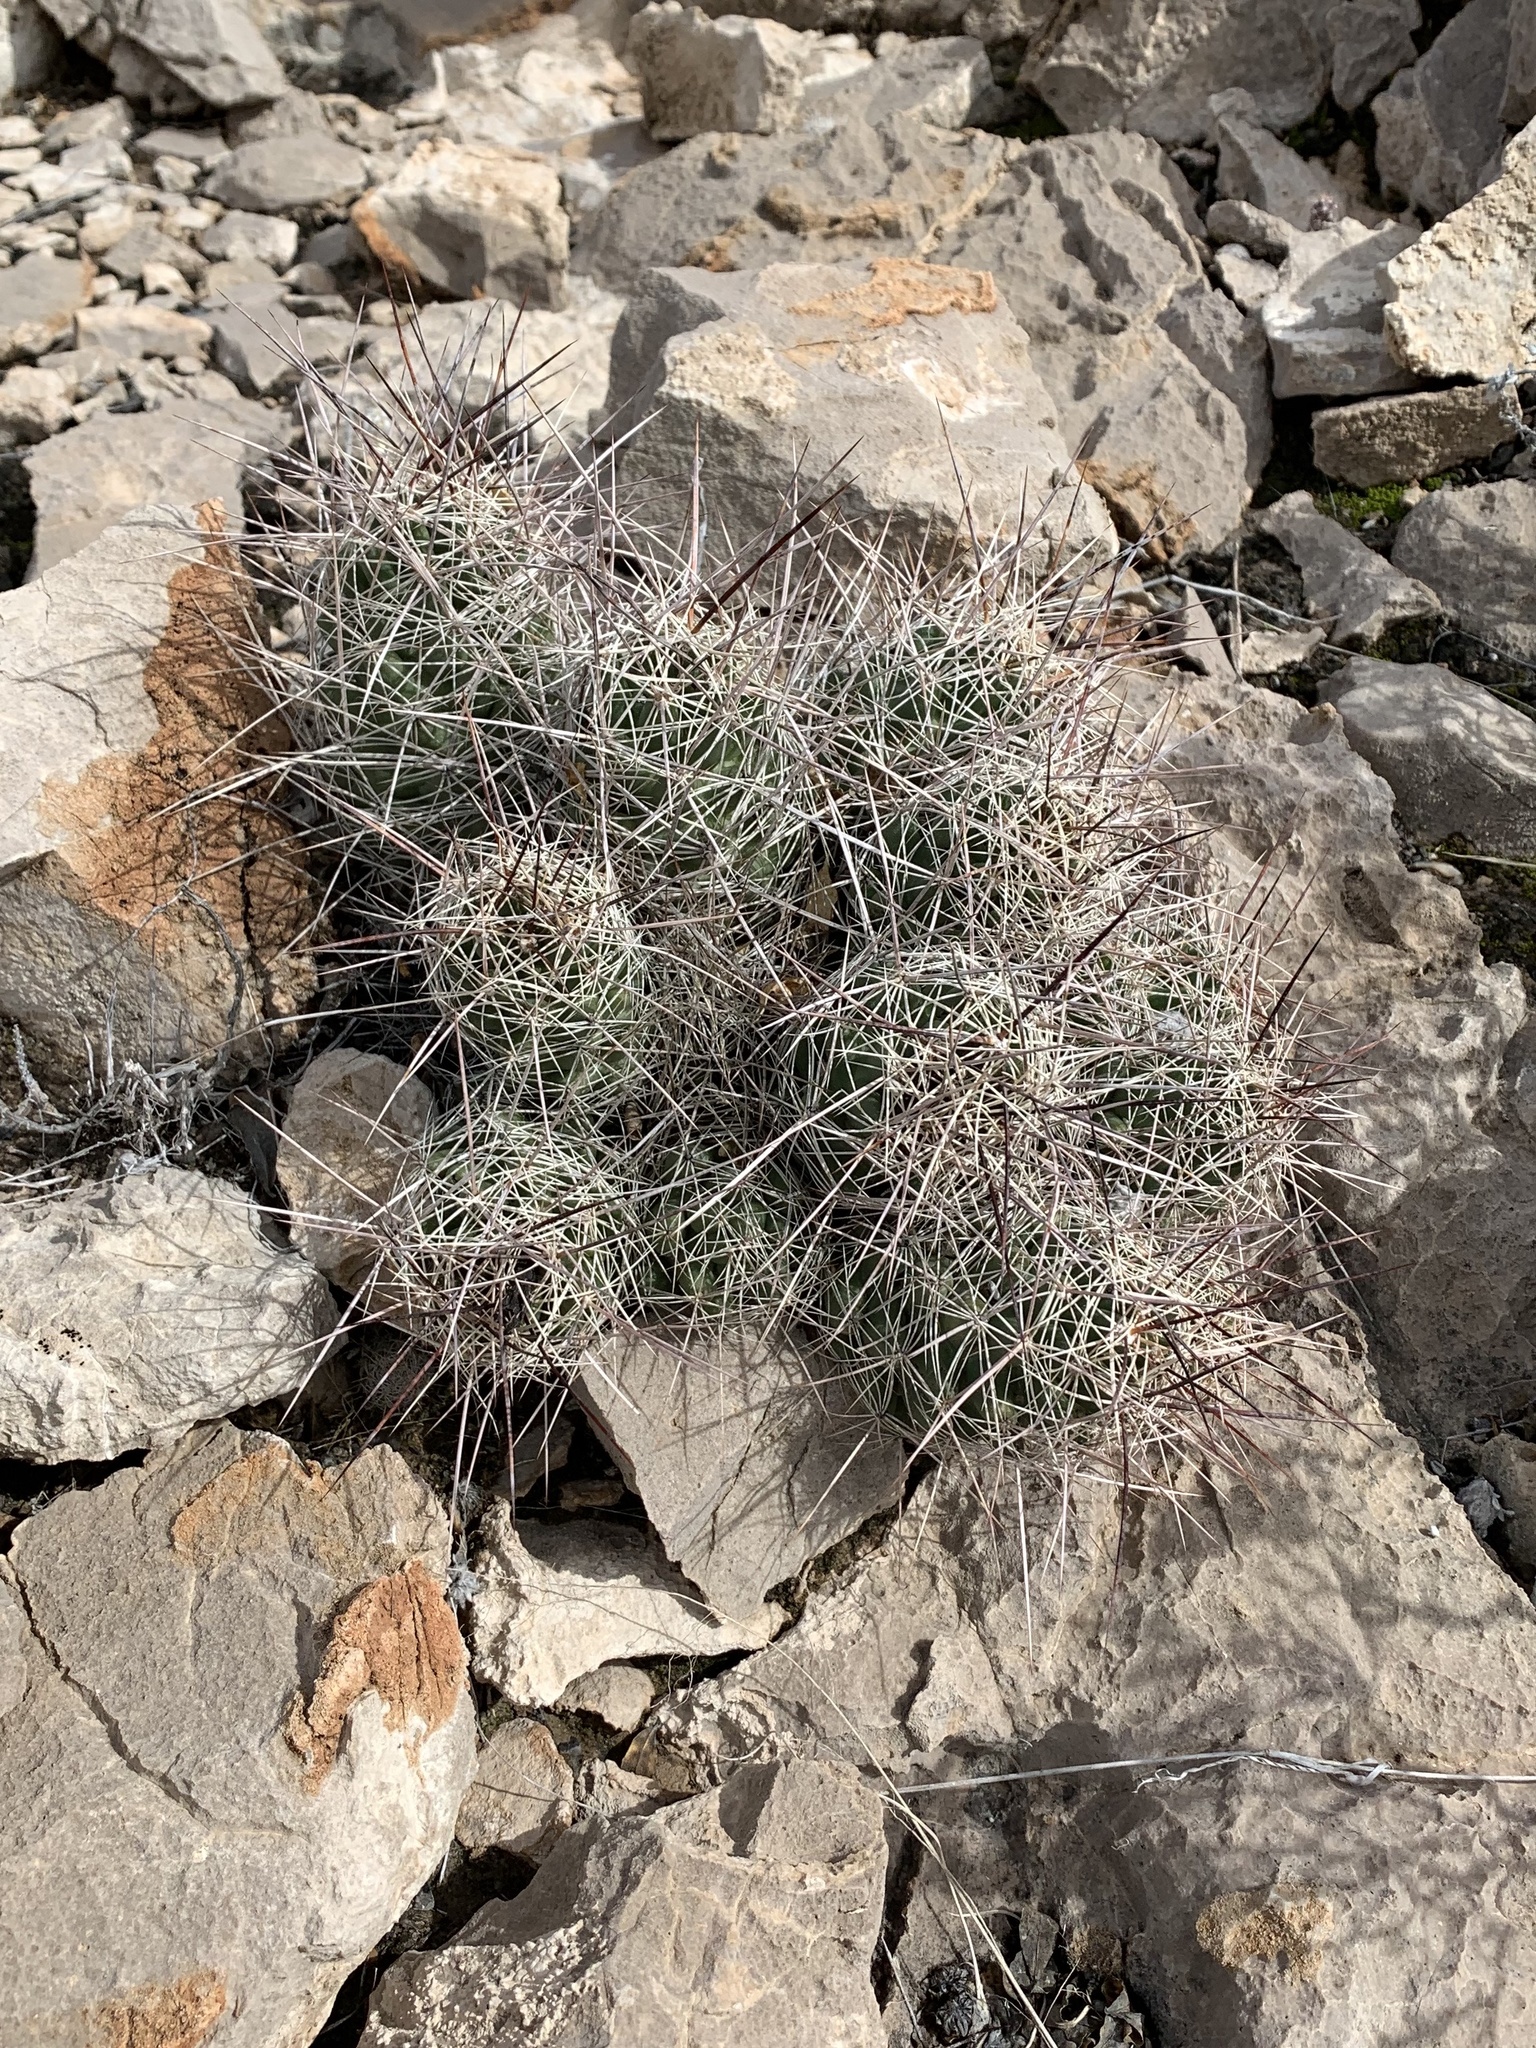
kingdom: Plantae
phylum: Tracheophyta
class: Magnoliopsida
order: Caryophyllales
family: Cactaceae
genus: Coryphantha
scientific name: Coryphantha macromeris
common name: Nipple beehive cactus
